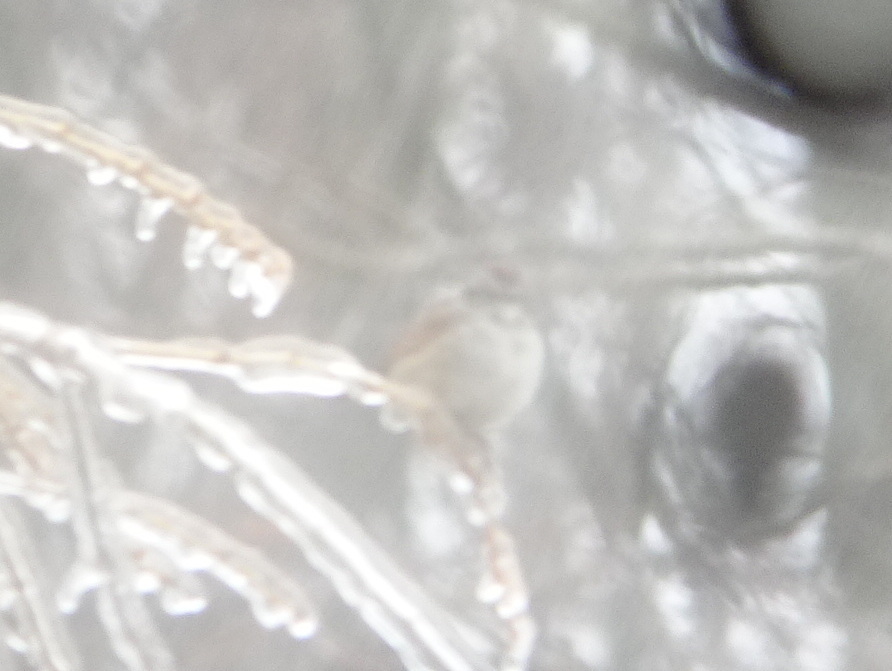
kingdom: Animalia
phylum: Chordata
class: Aves
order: Passeriformes
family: Passerellidae
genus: Melospiza
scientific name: Melospiza georgiana
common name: Swamp sparrow
